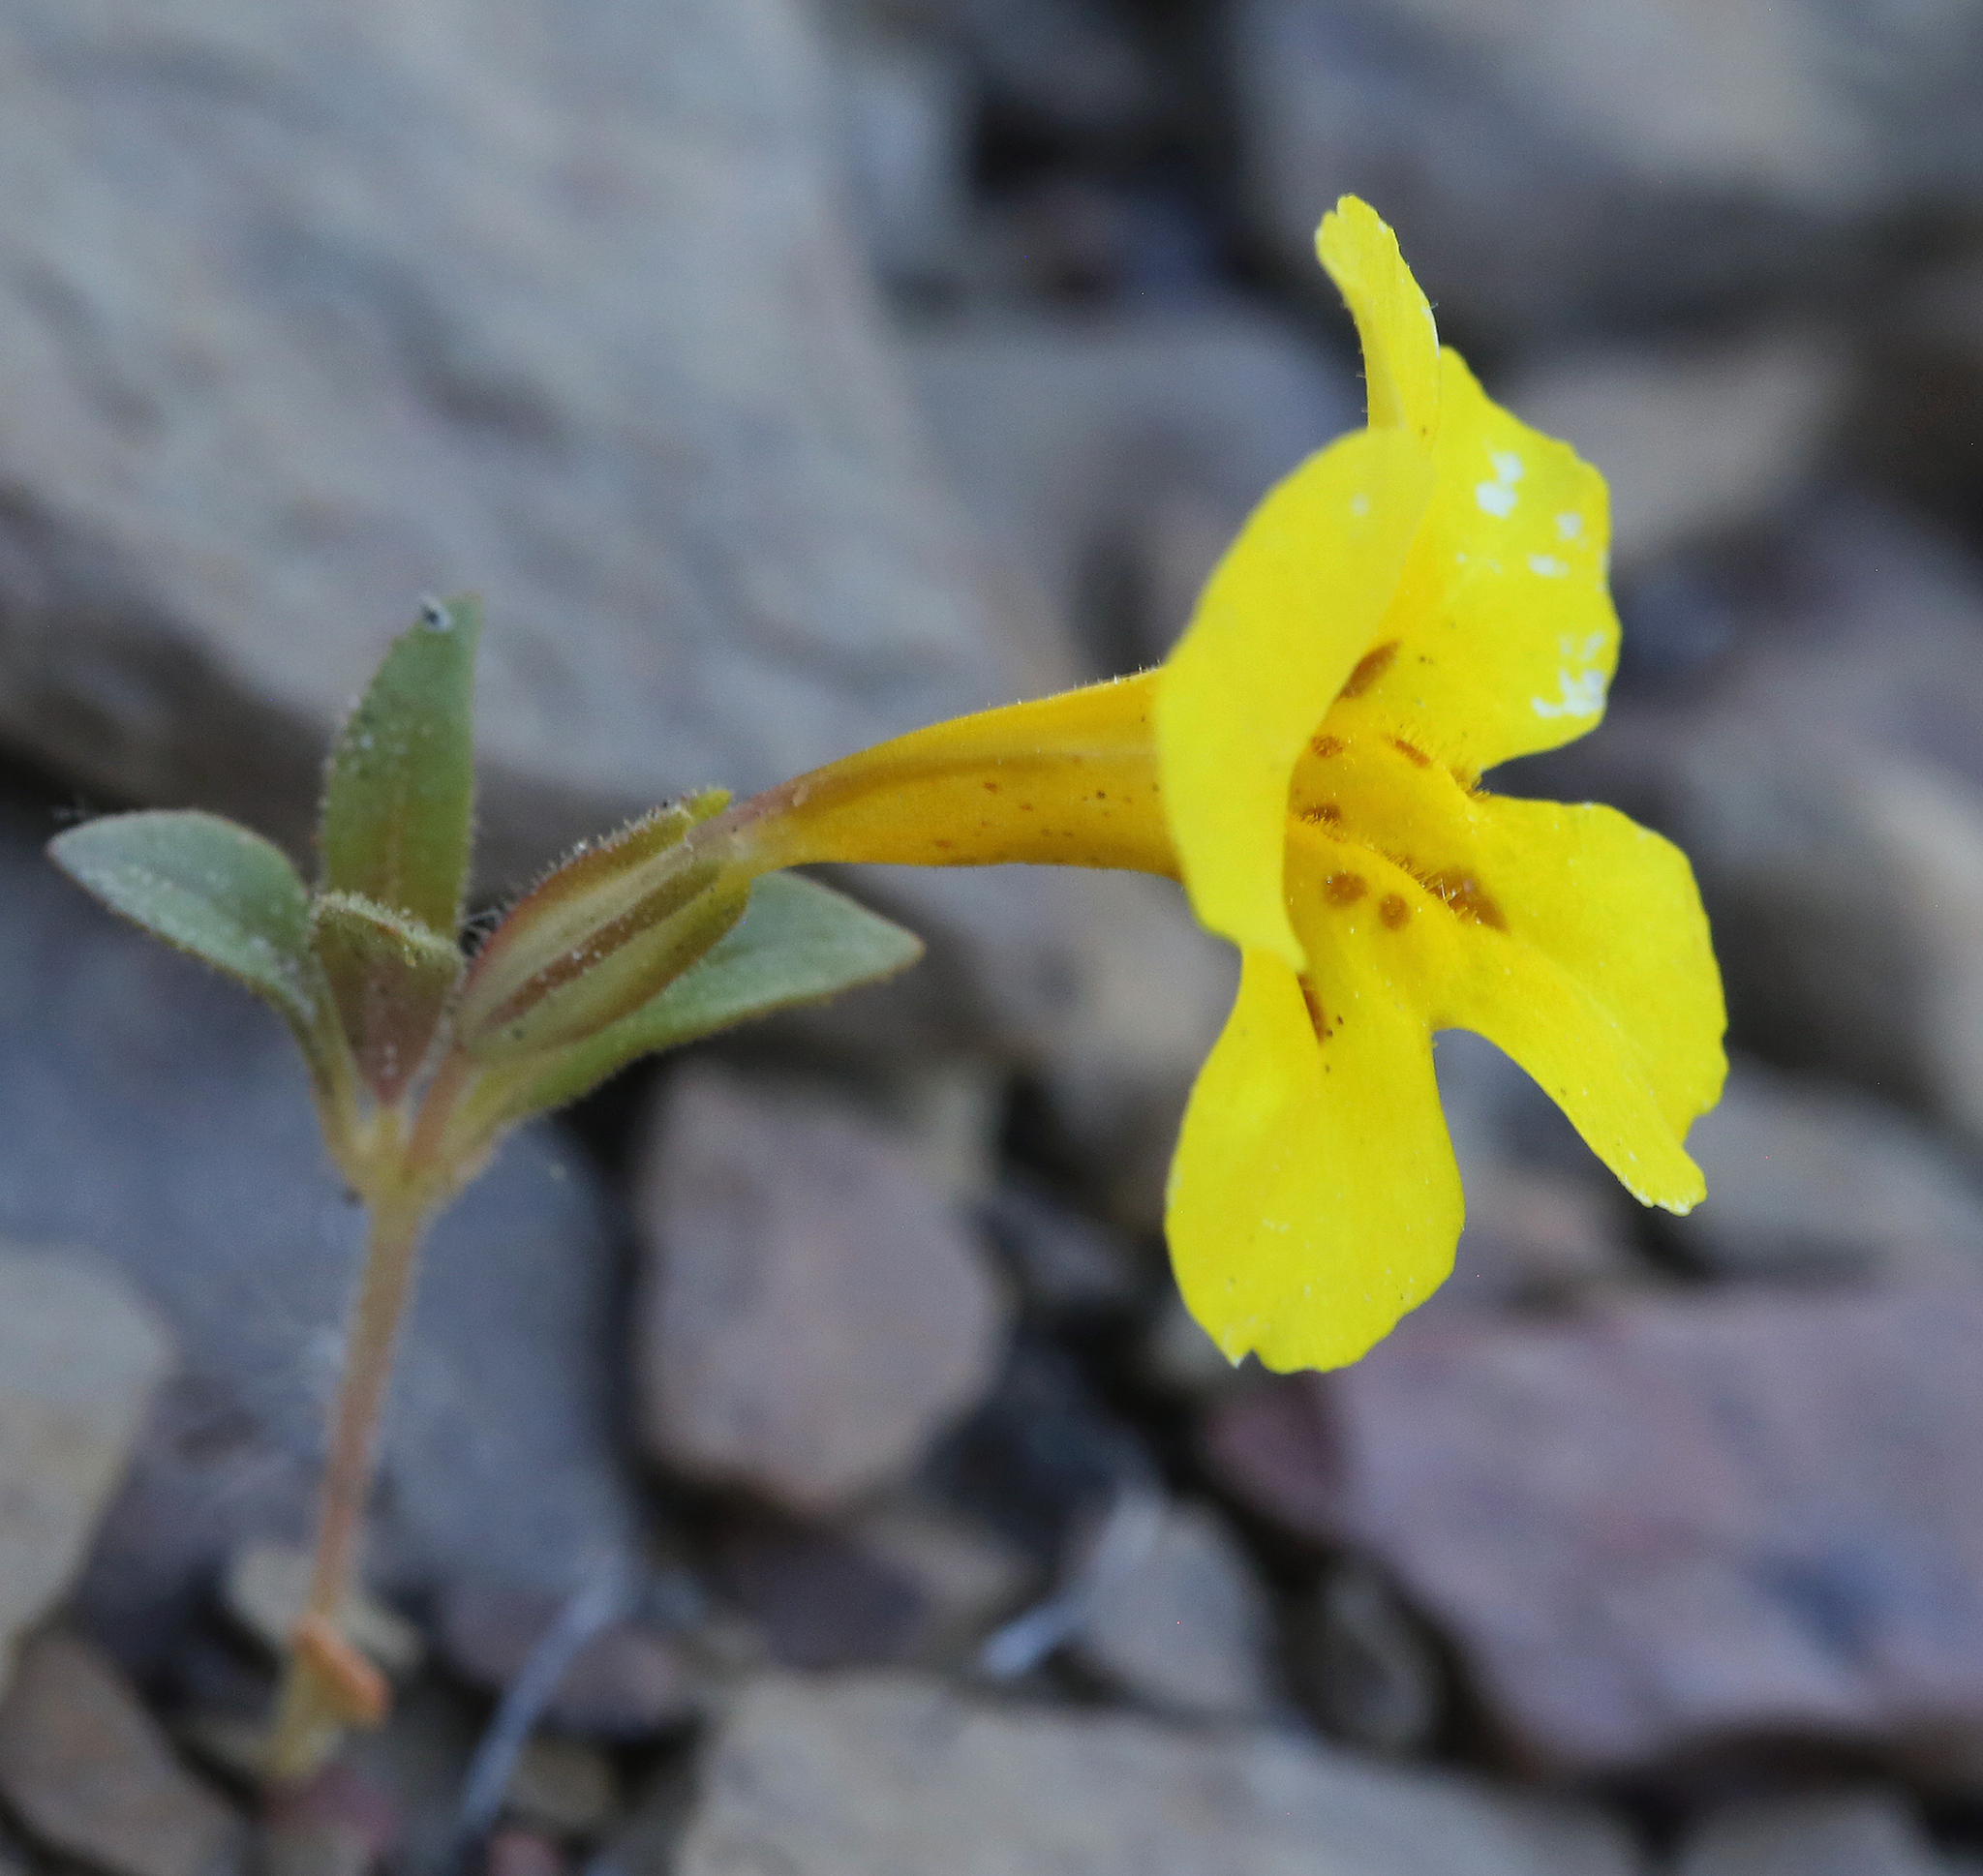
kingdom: Plantae
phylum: Tracheophyta
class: Magnoliopsida
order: Lamiales
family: Phrymaceae
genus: Diplacus
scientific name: Diplacus mephiticus
